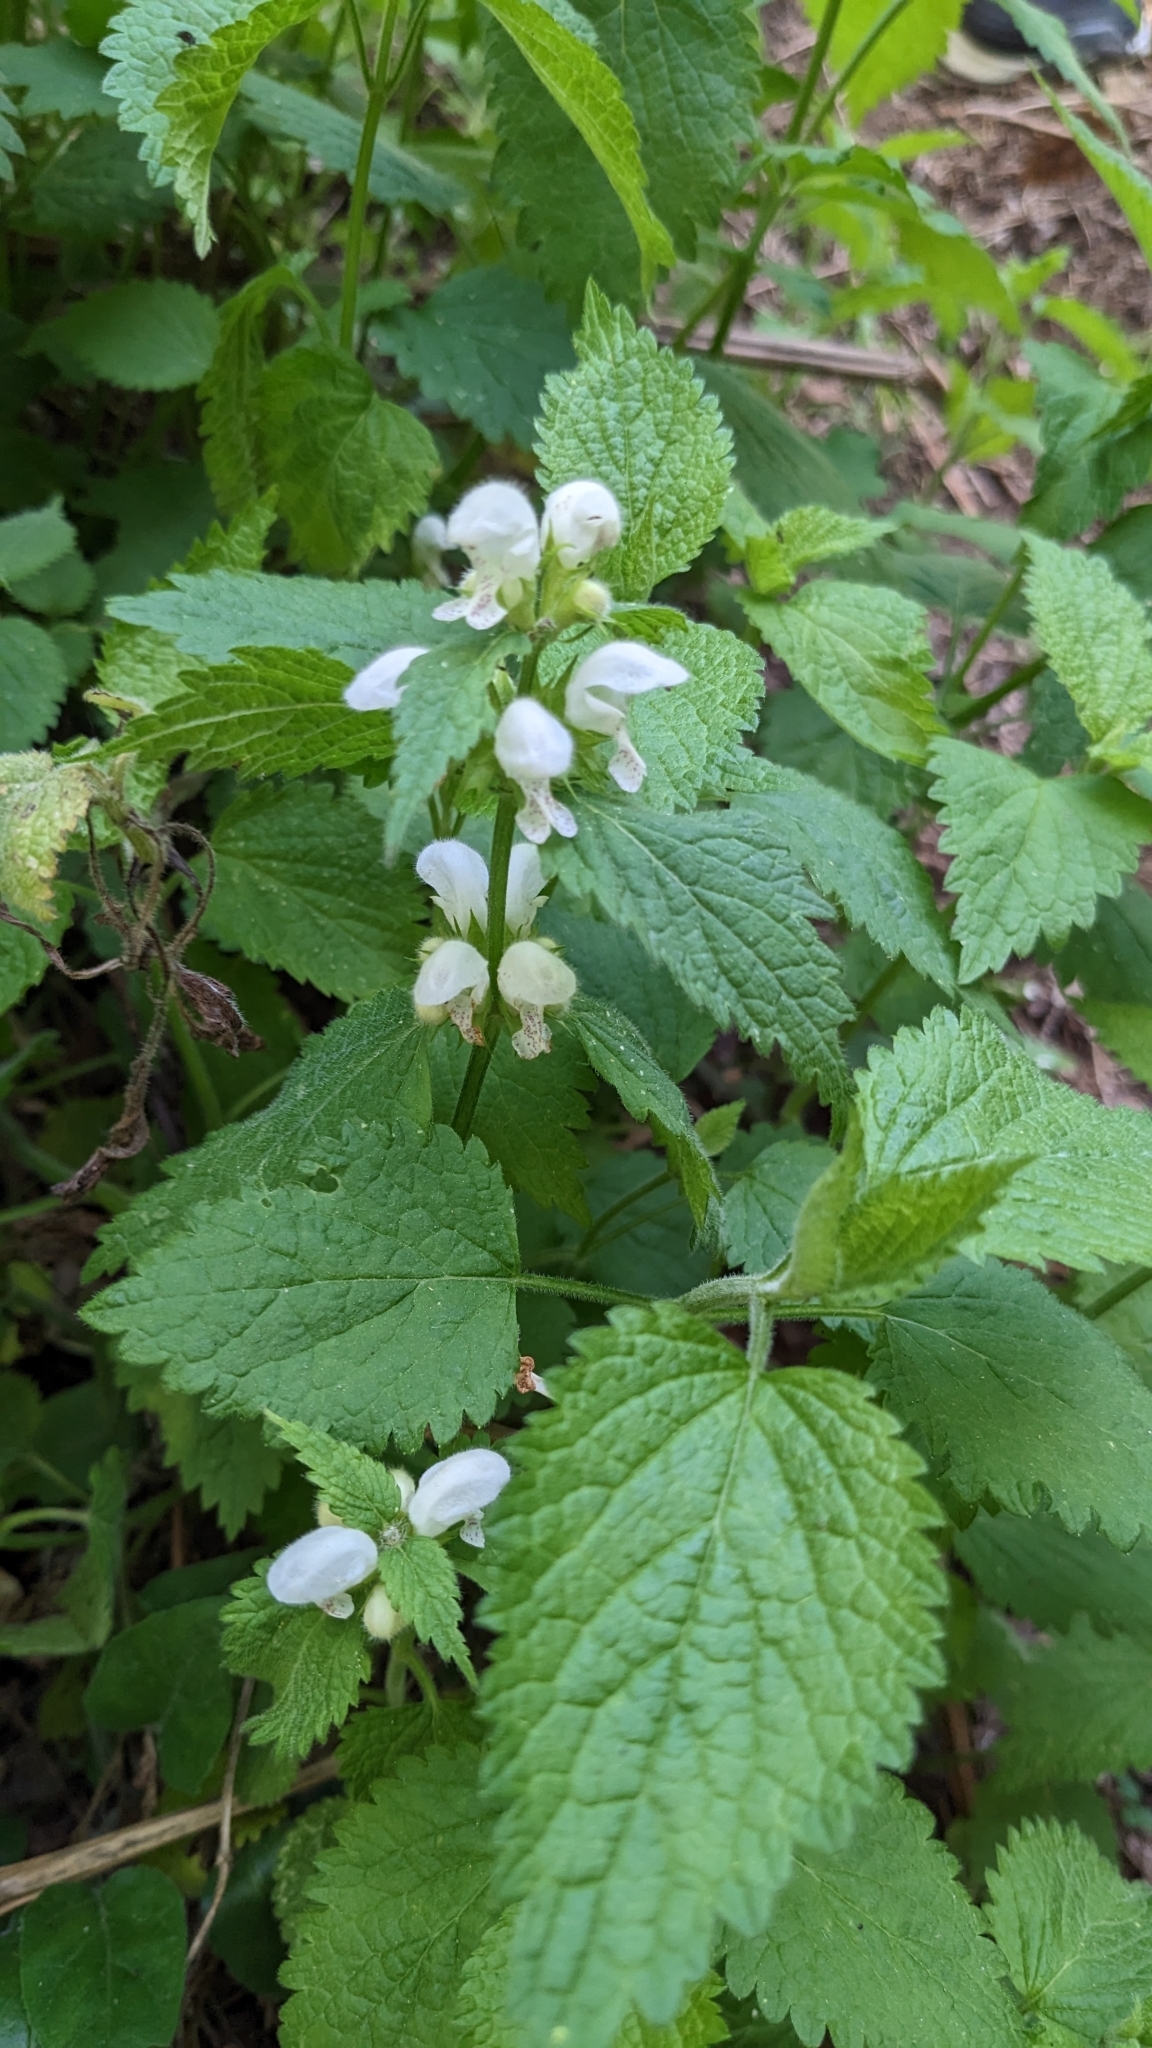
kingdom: Plantae
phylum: Tracheophyta
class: Magnoliopsida
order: Lamiales
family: Lamiaceae
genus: Lamium
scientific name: Lamium flexuosum
